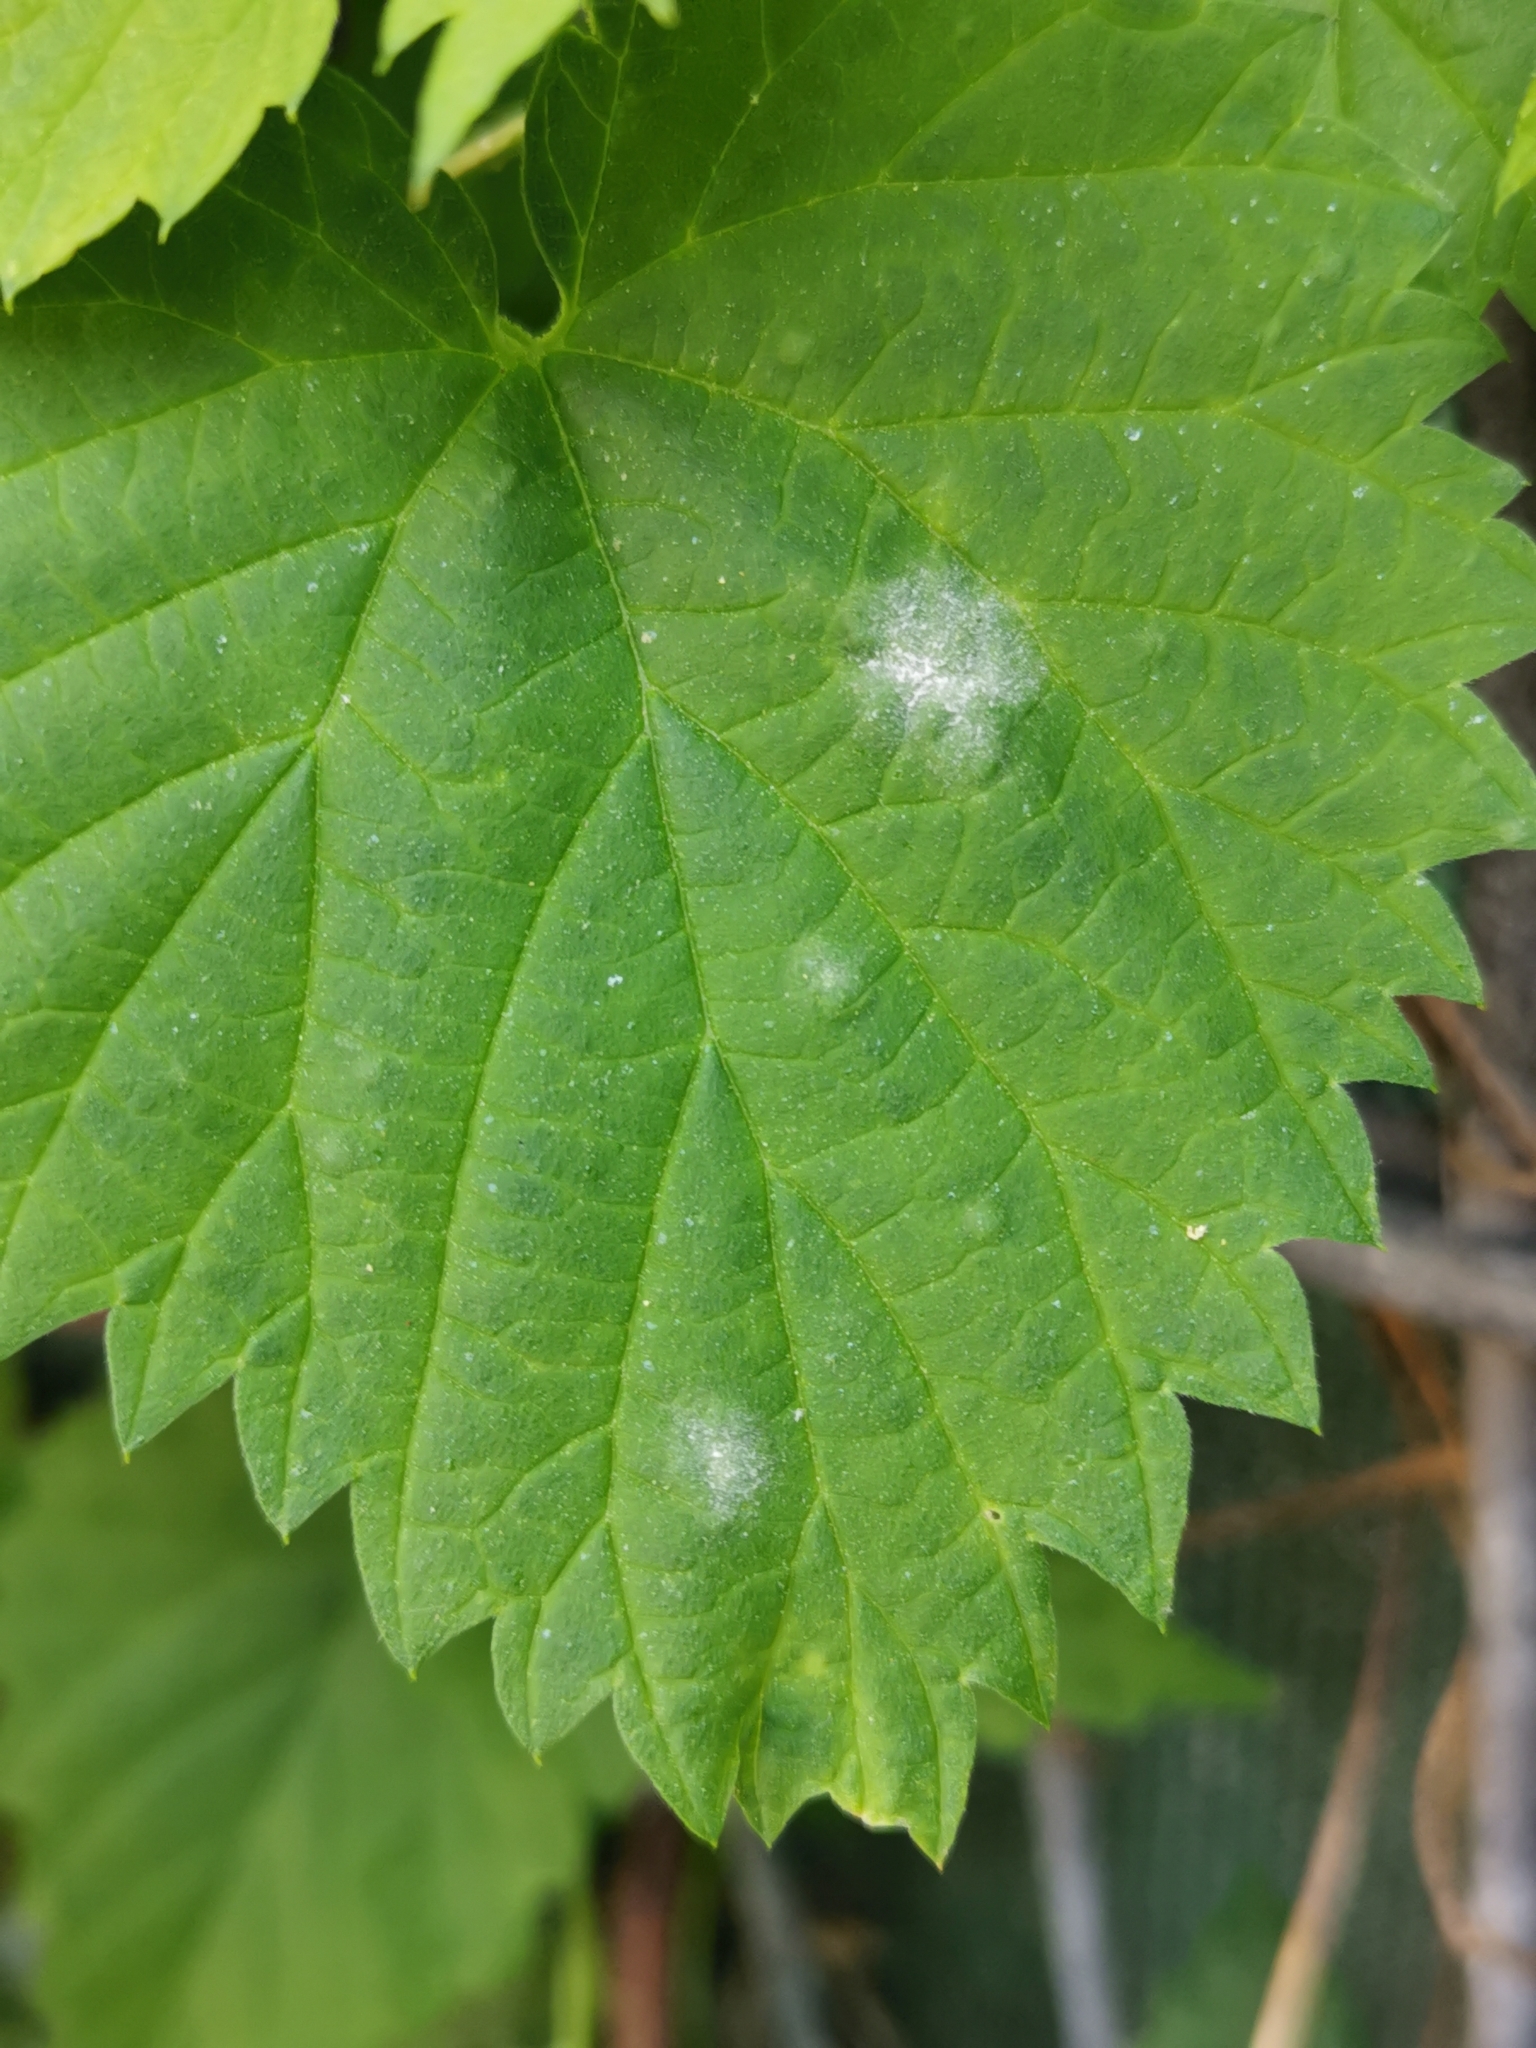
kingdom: Fungi
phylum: Ascomycota
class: Leotiomycetes
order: Helotiales
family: Erysiphaceae
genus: Podosphaera
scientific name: Podosphaera macularis
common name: Powdery mildew
